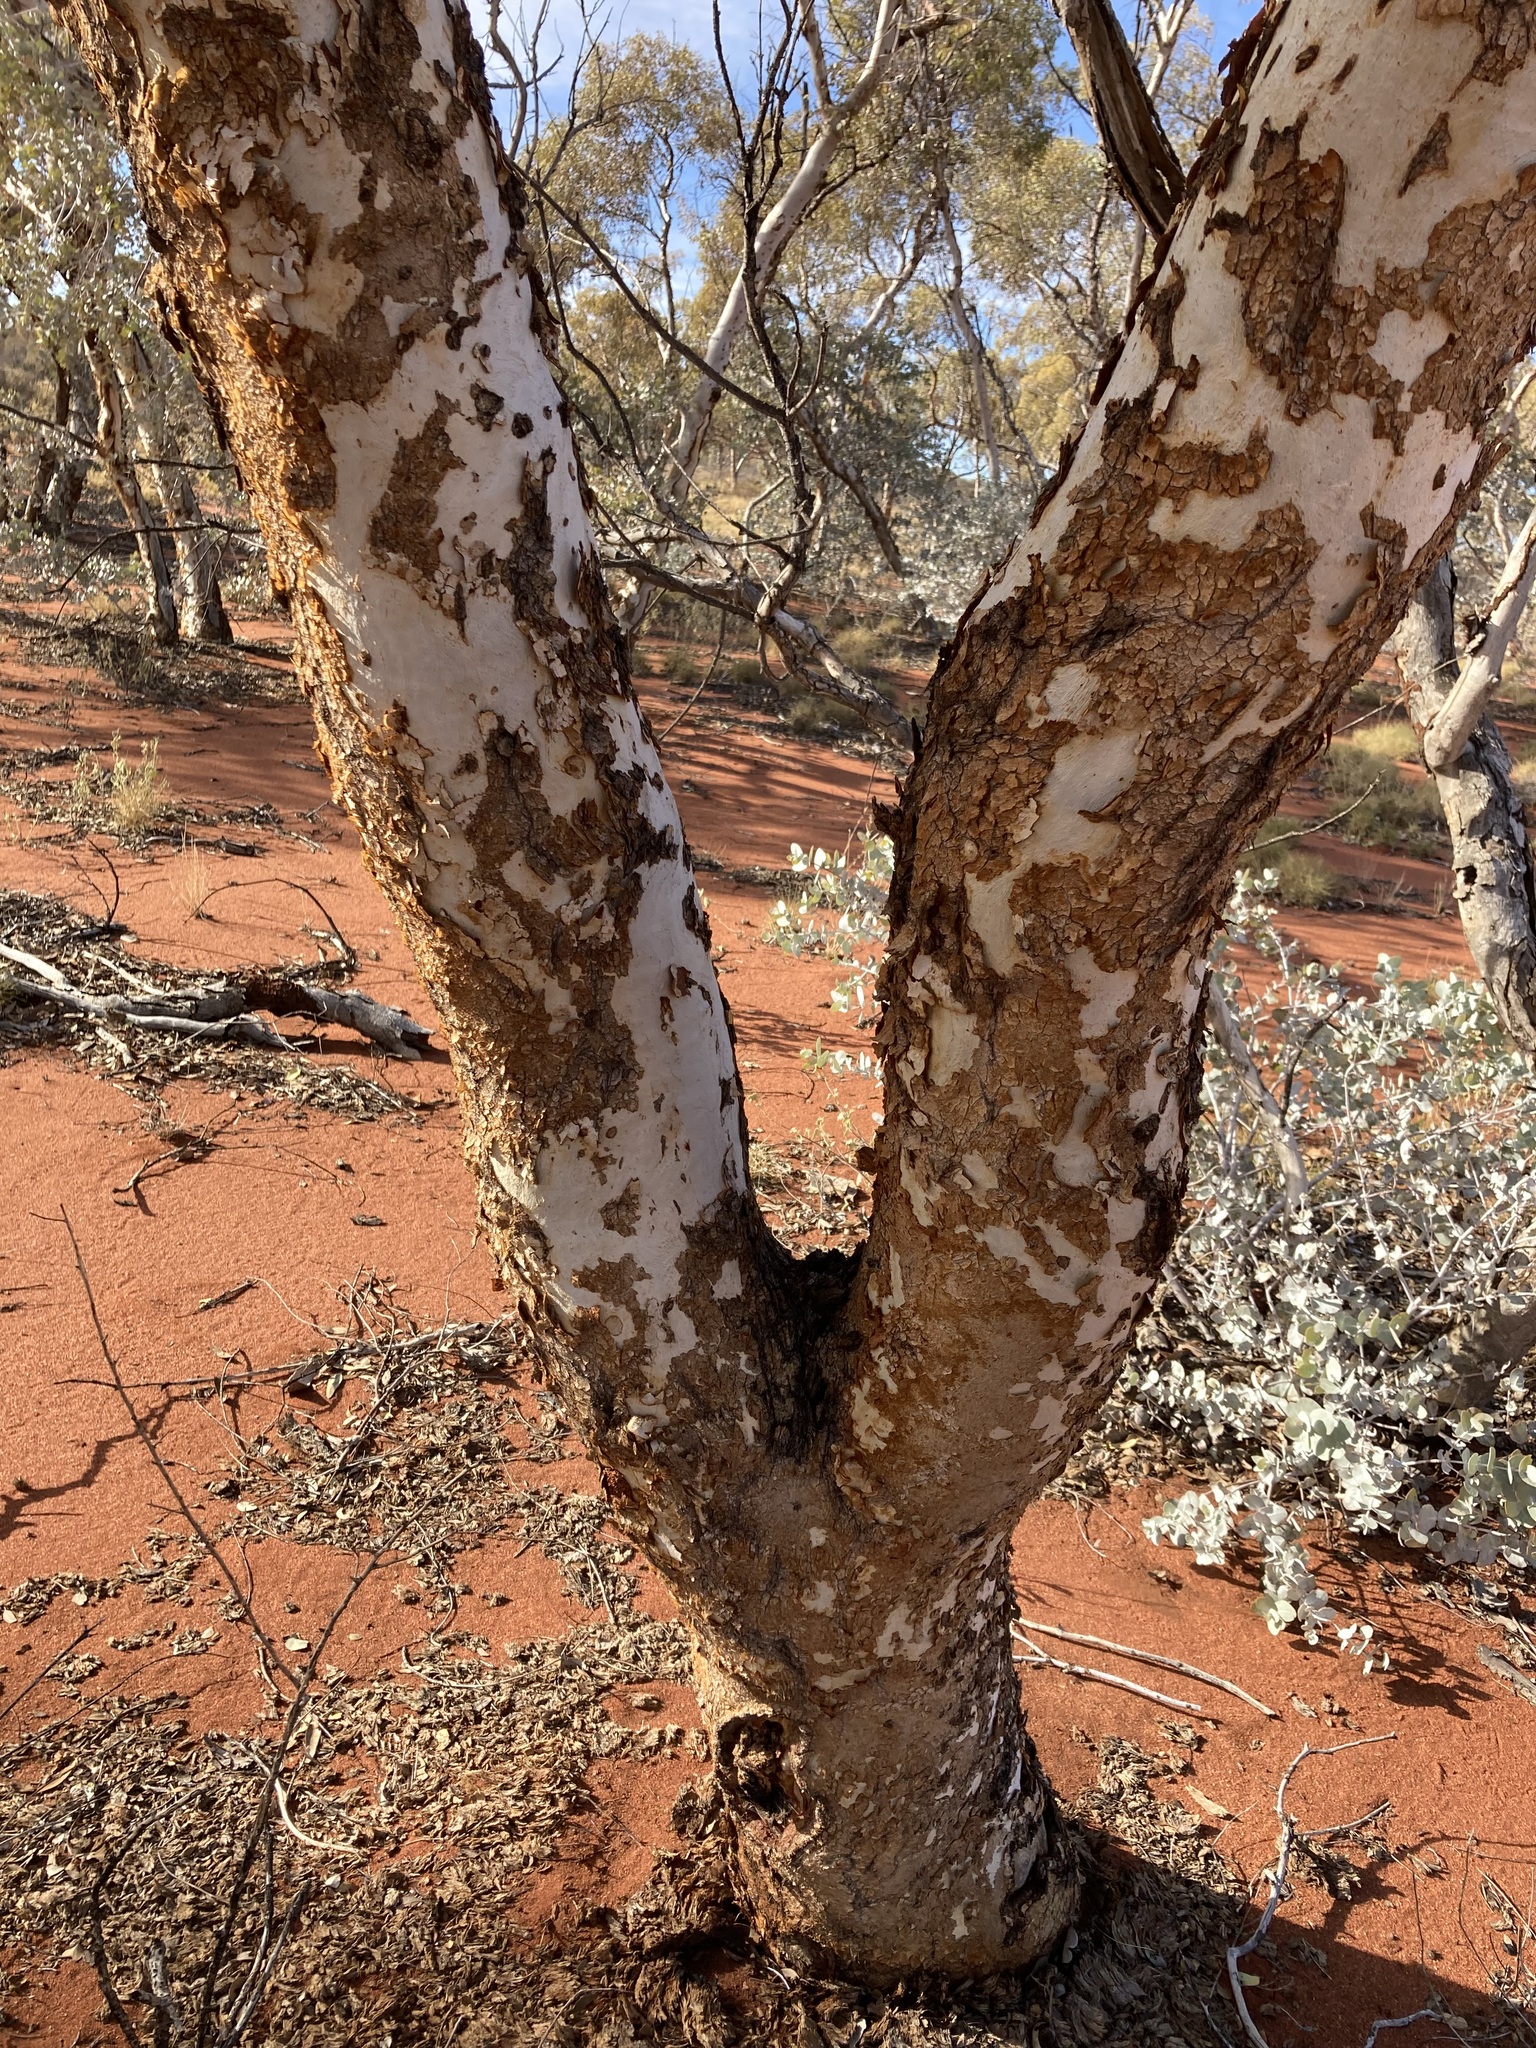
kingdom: Plantae
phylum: Tracheophyta
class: Magnoliopsida
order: Myrtales
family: Myrtaceae
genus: Eucalyptus
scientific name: Eucalyptus gongylocarpa
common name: Desert gum
